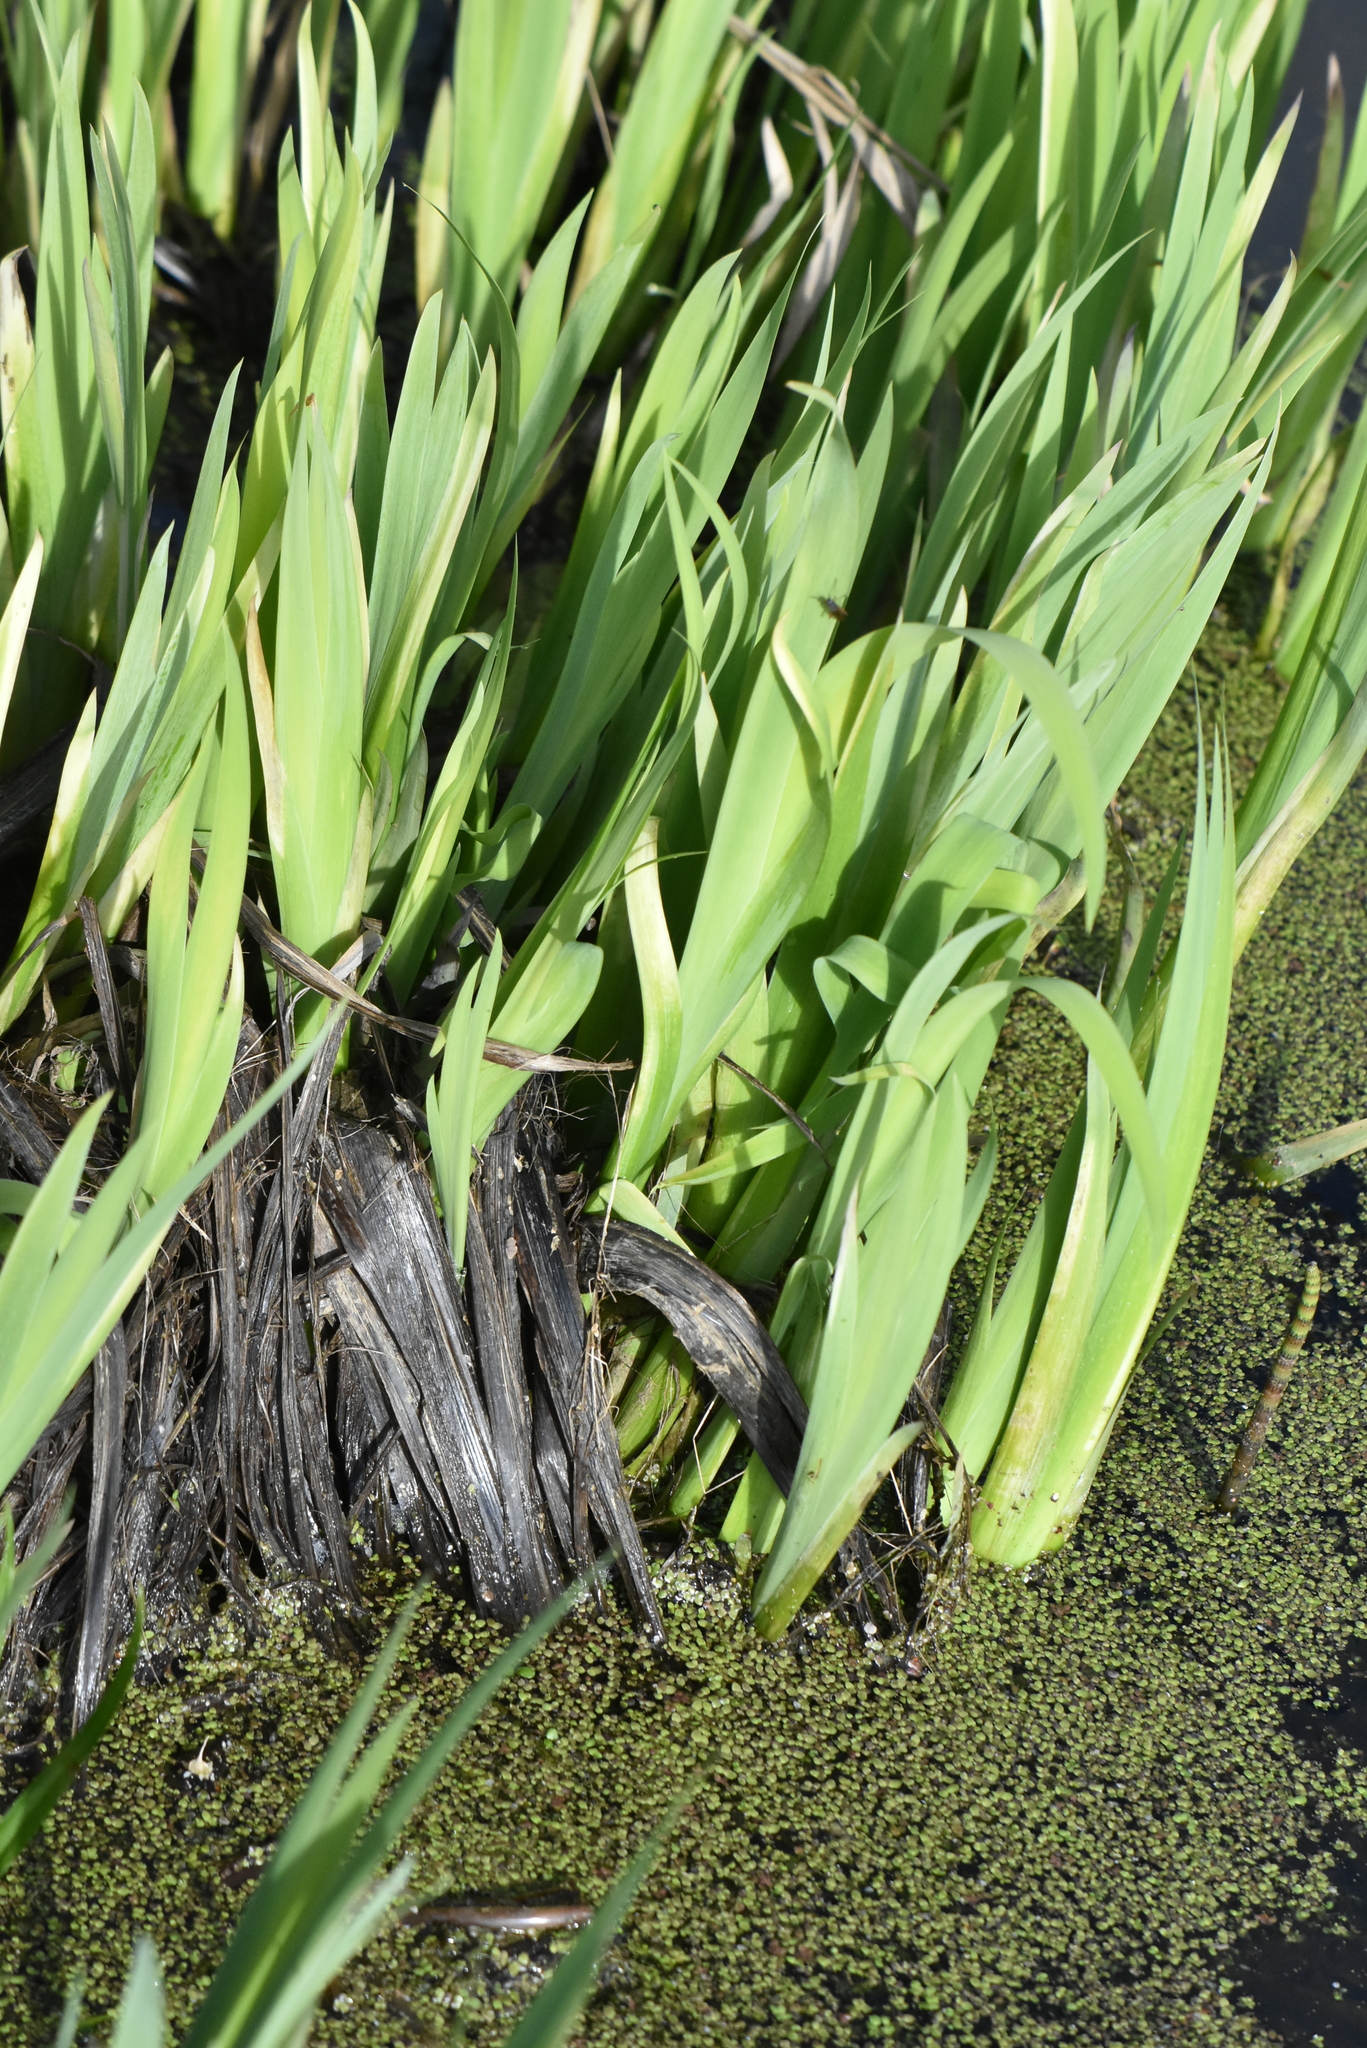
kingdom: Plantae
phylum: Tracheophyta
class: Liliopsida
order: Asparagales
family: Iridaceae
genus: Iris
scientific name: Iris pseudacorus
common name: Yellow flag
